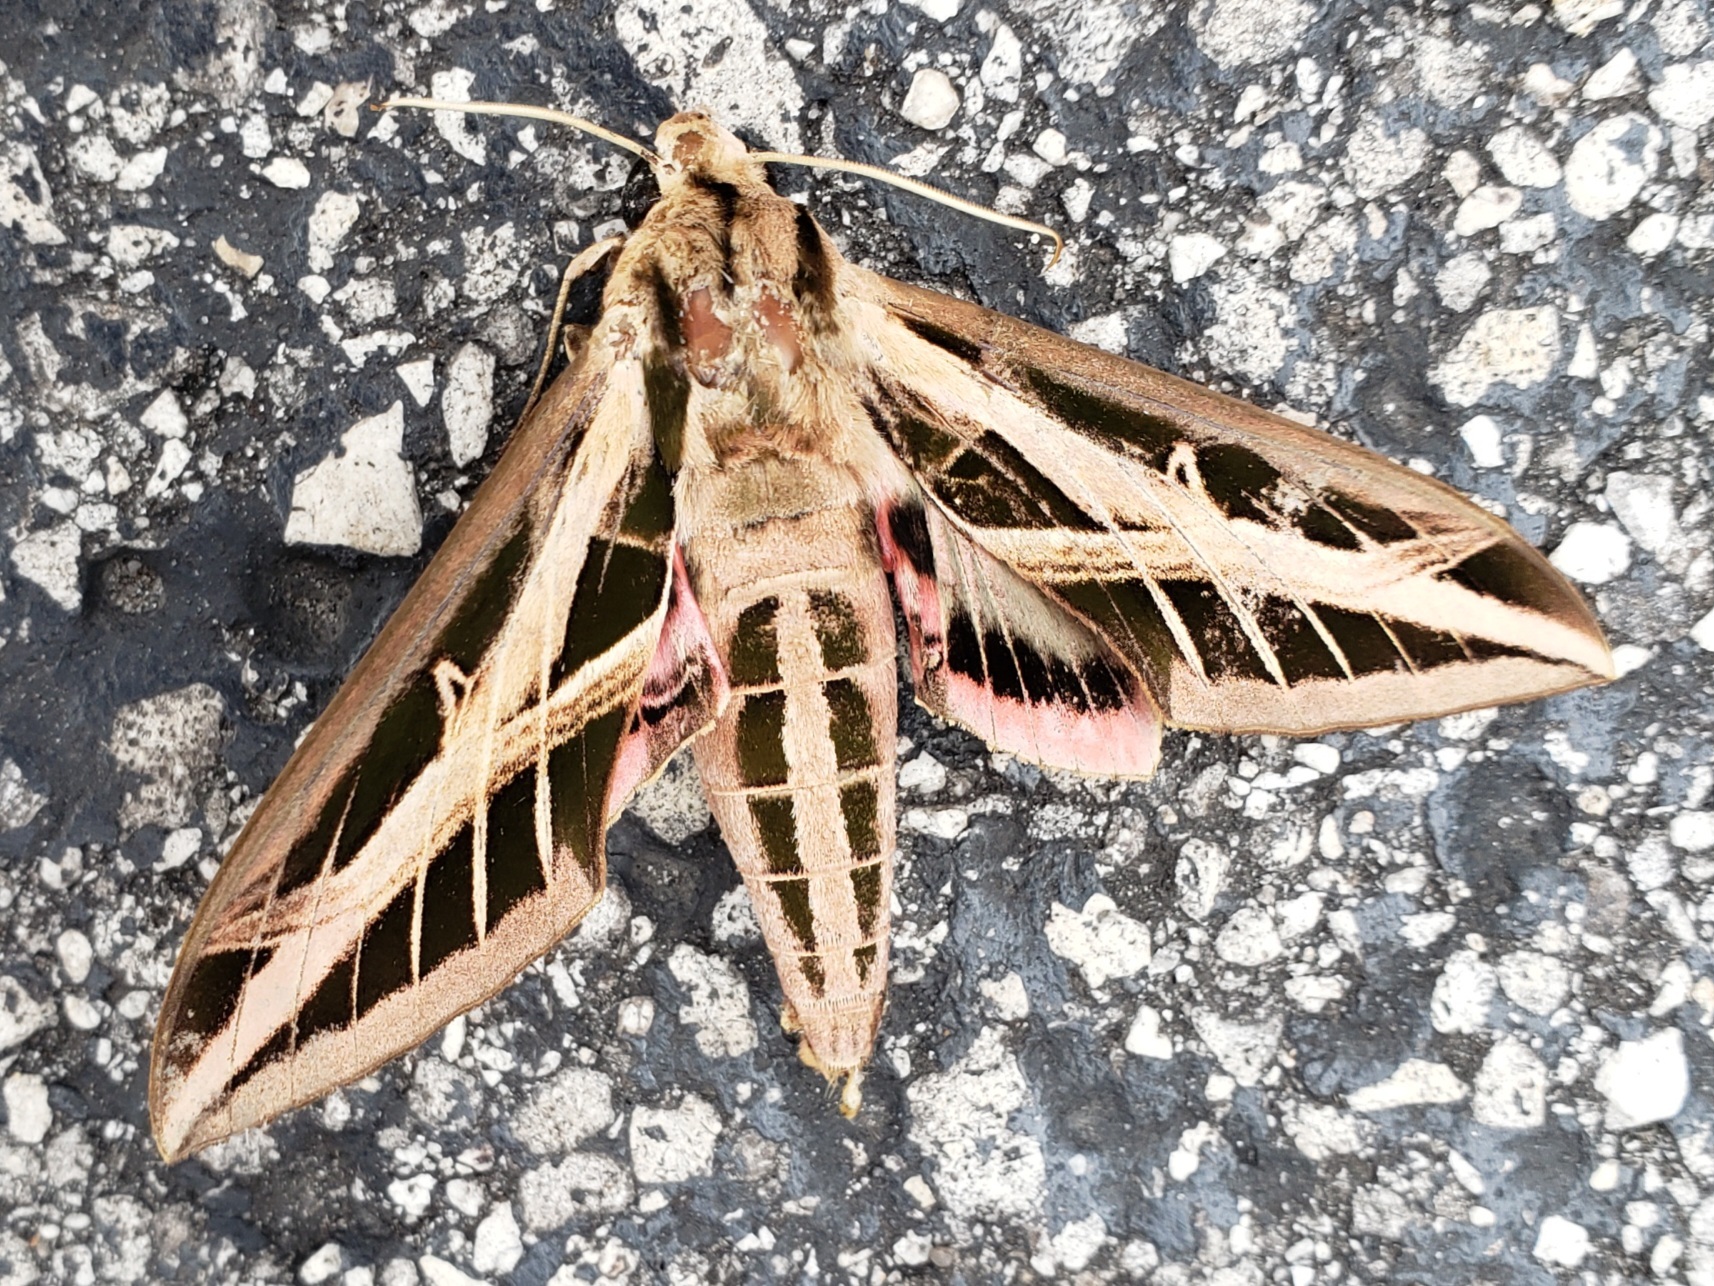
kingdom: Animalia
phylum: Arthropoda
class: Insecta
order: Lepidoptera
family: Sphingidae
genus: Eumorpha
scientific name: Eumorpha fasciatus
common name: Banded sphinx
